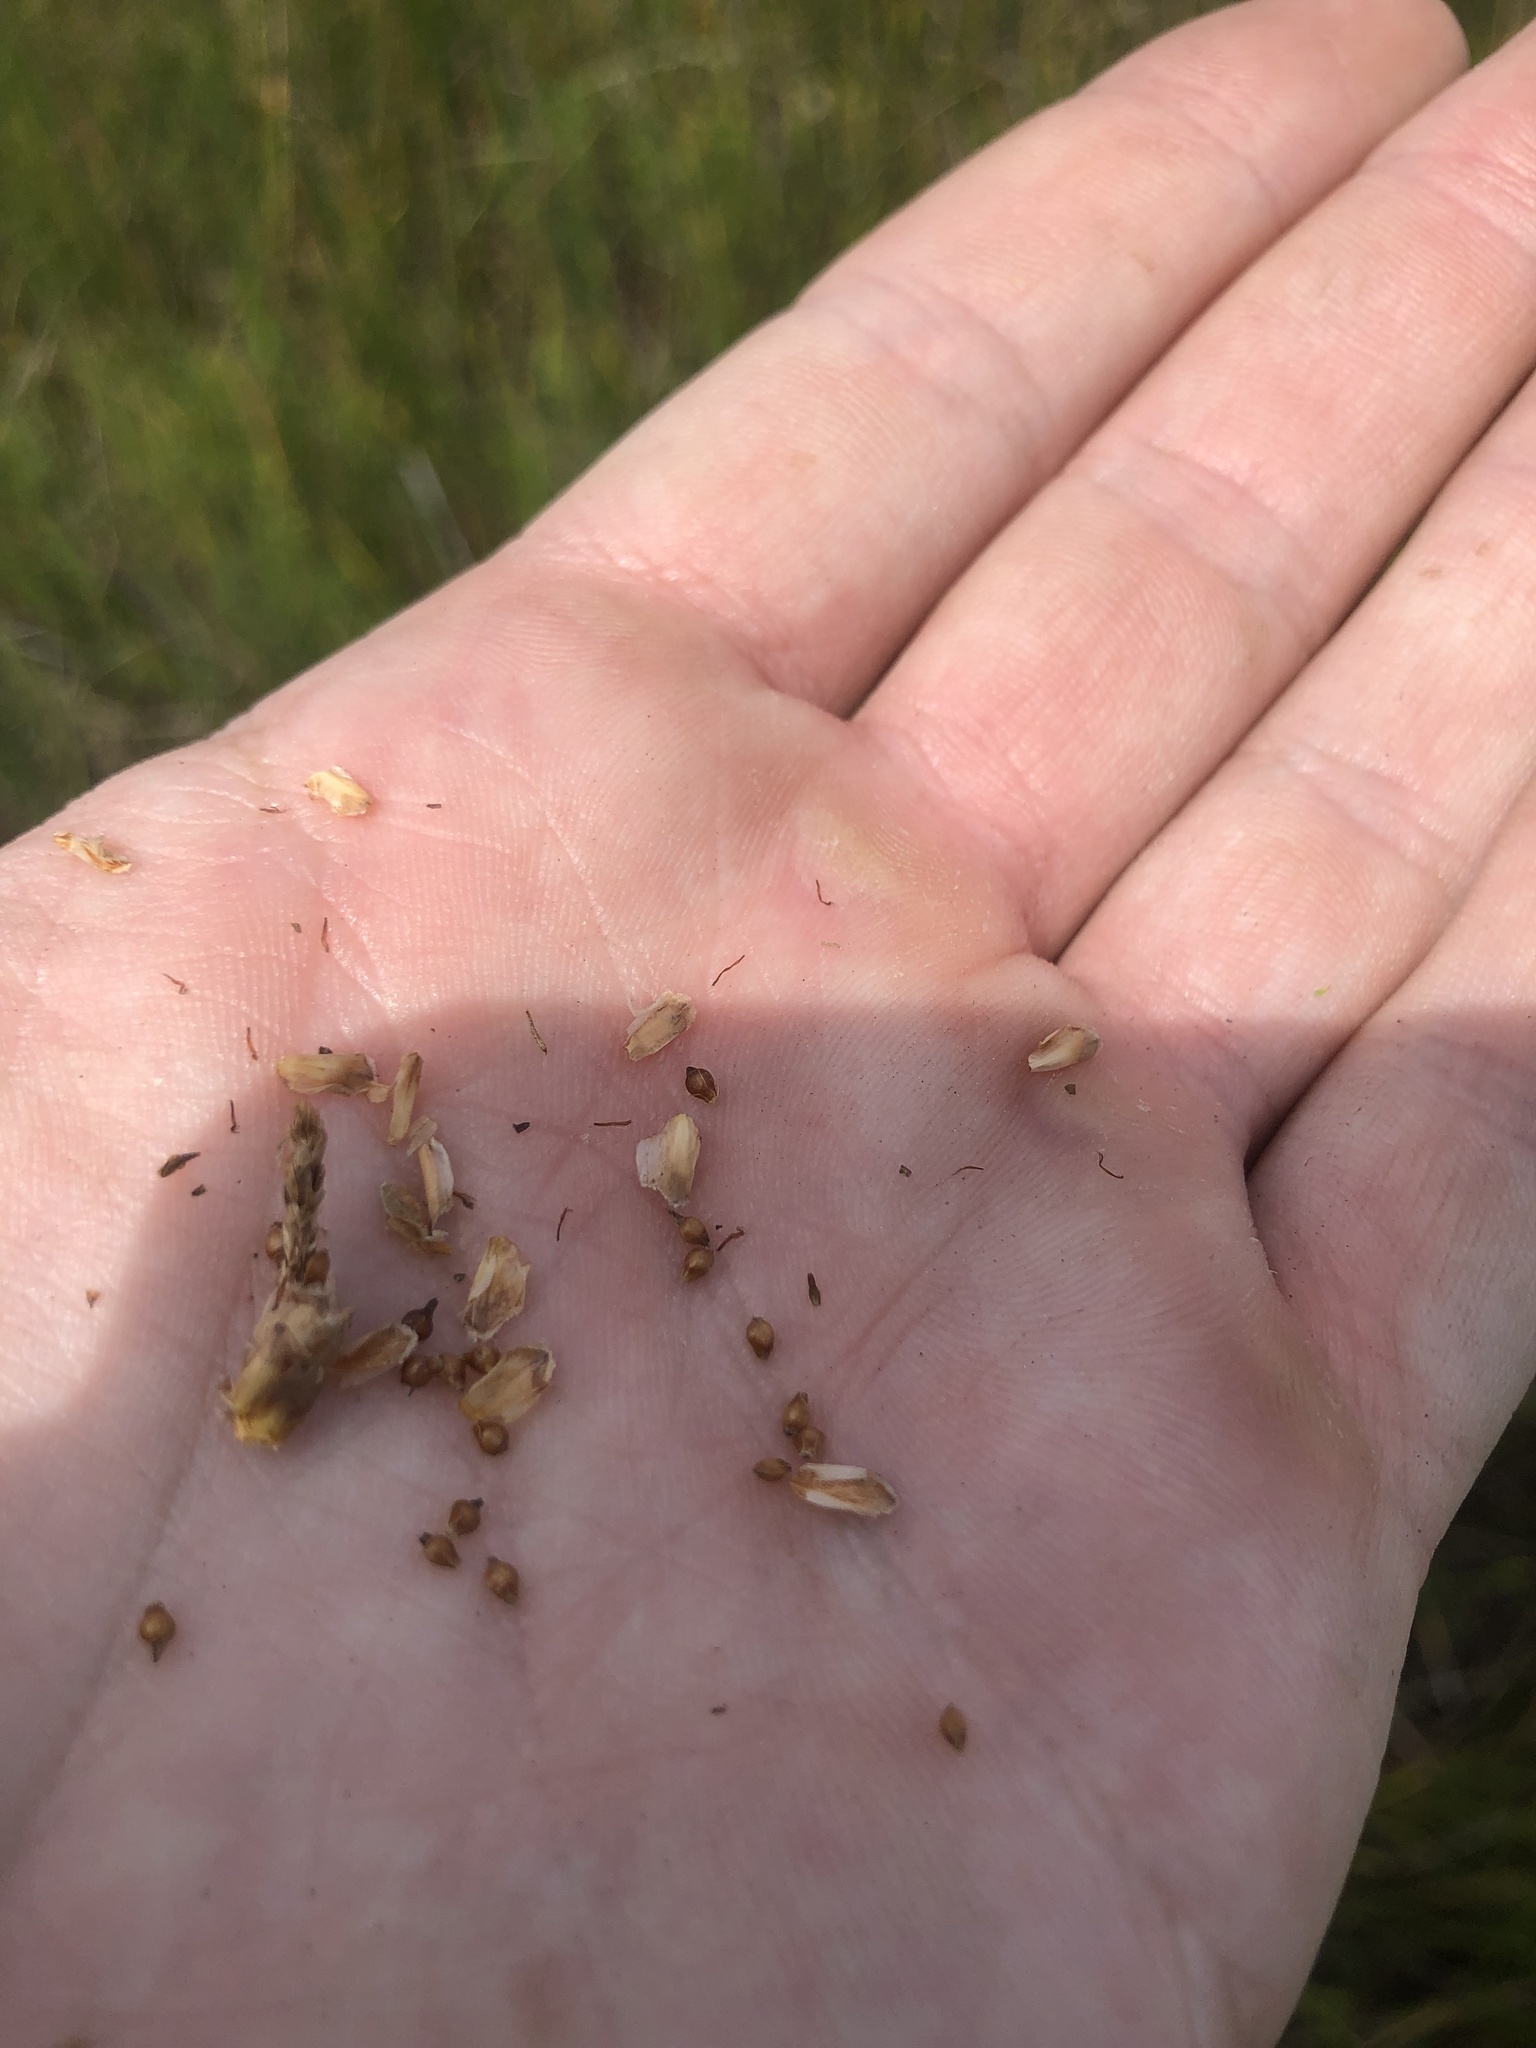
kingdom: Plantae
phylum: Tracheophyta
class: Liliopsida
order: Poales
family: Cyperaceae
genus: Eleocharis
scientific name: Eleocharis equisetoides
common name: Horsetail spike-rush
